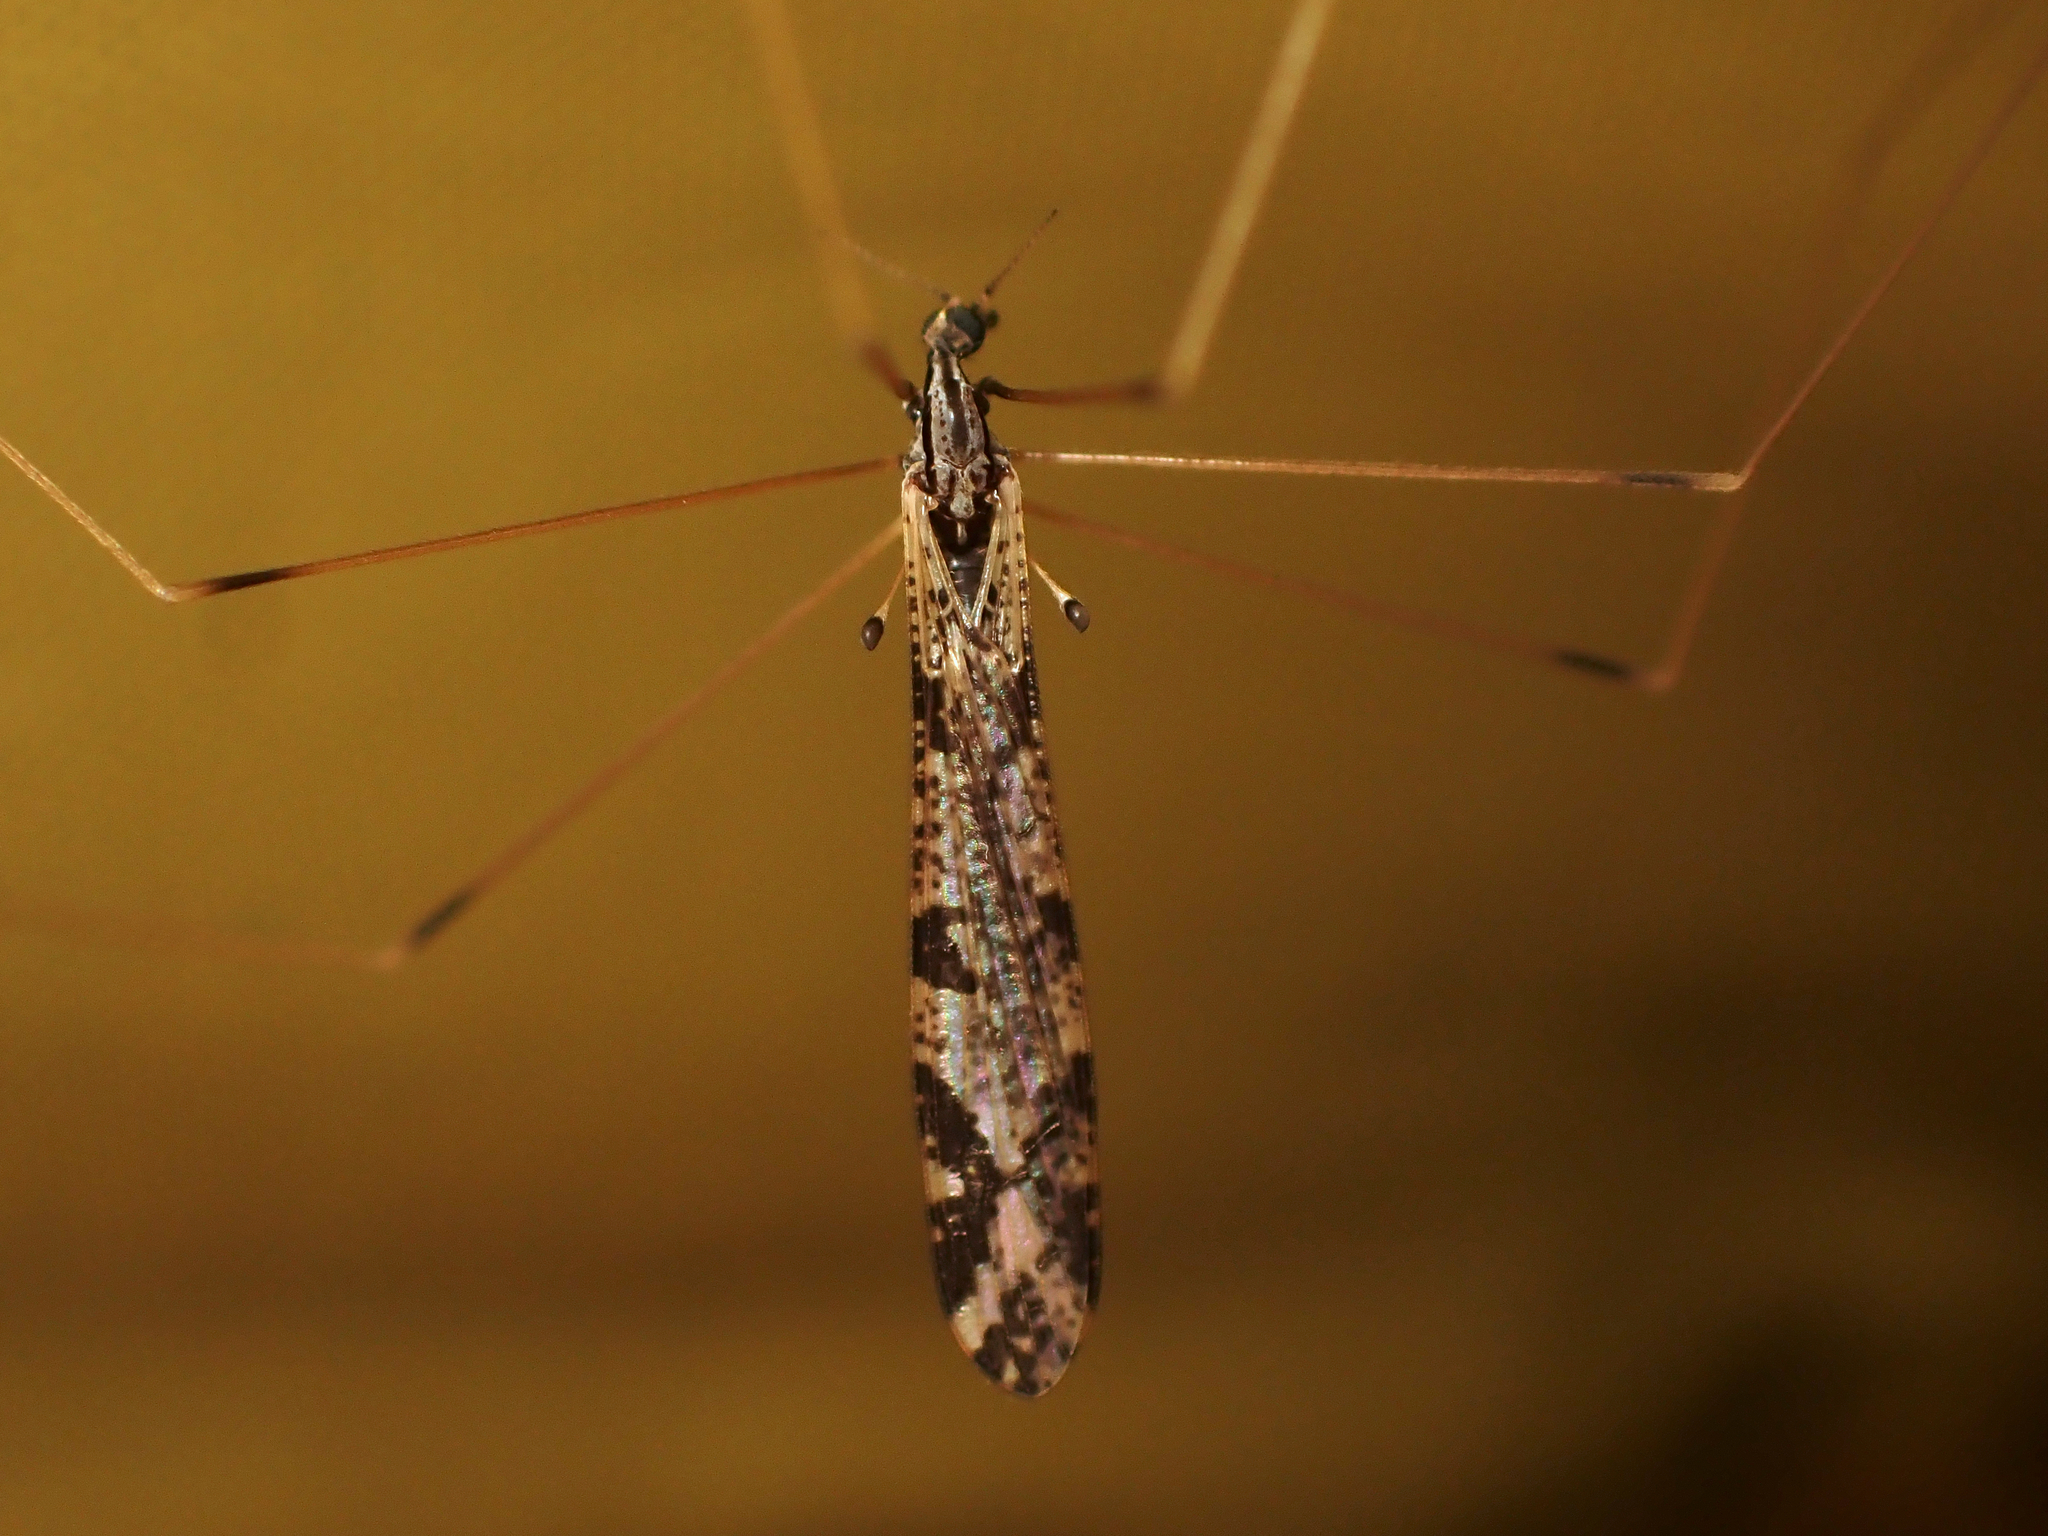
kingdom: Animalia
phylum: Arthropoda
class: Insecta
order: Diptera
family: Limoniidae
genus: Discobola
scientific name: Discobola striata
